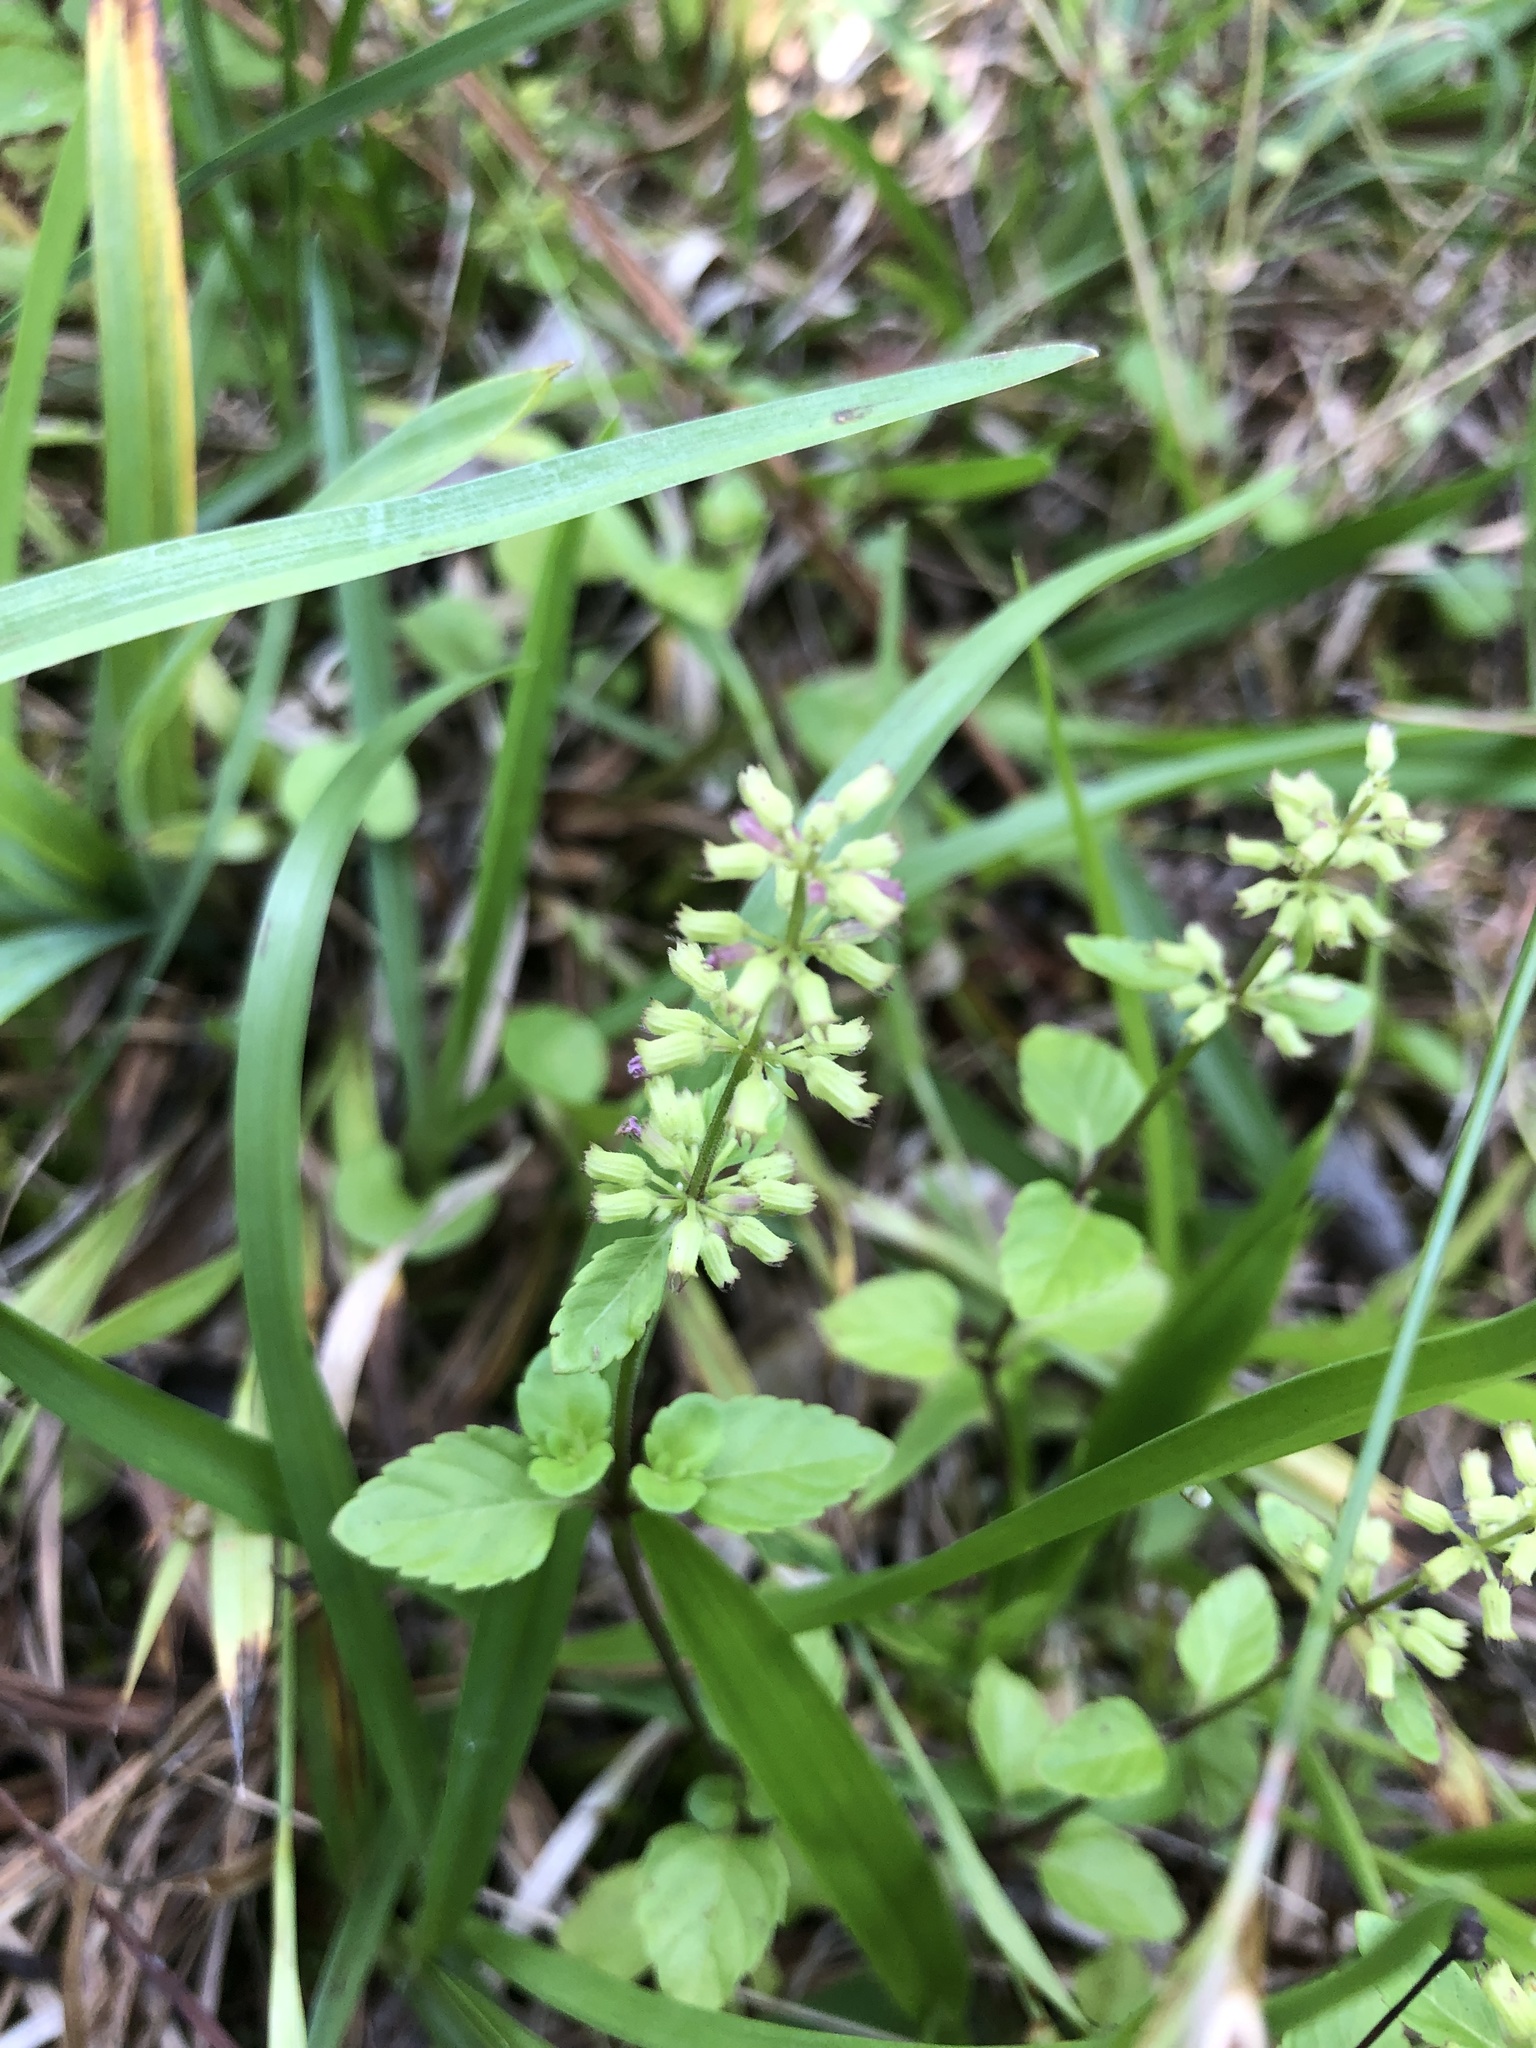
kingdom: Plantae
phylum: Tracheophyta
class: Magnoliopsida
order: Lamiales
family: Lamiaceae
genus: Clinopodium
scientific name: Clinopodium gracile
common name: Slender wild basil
